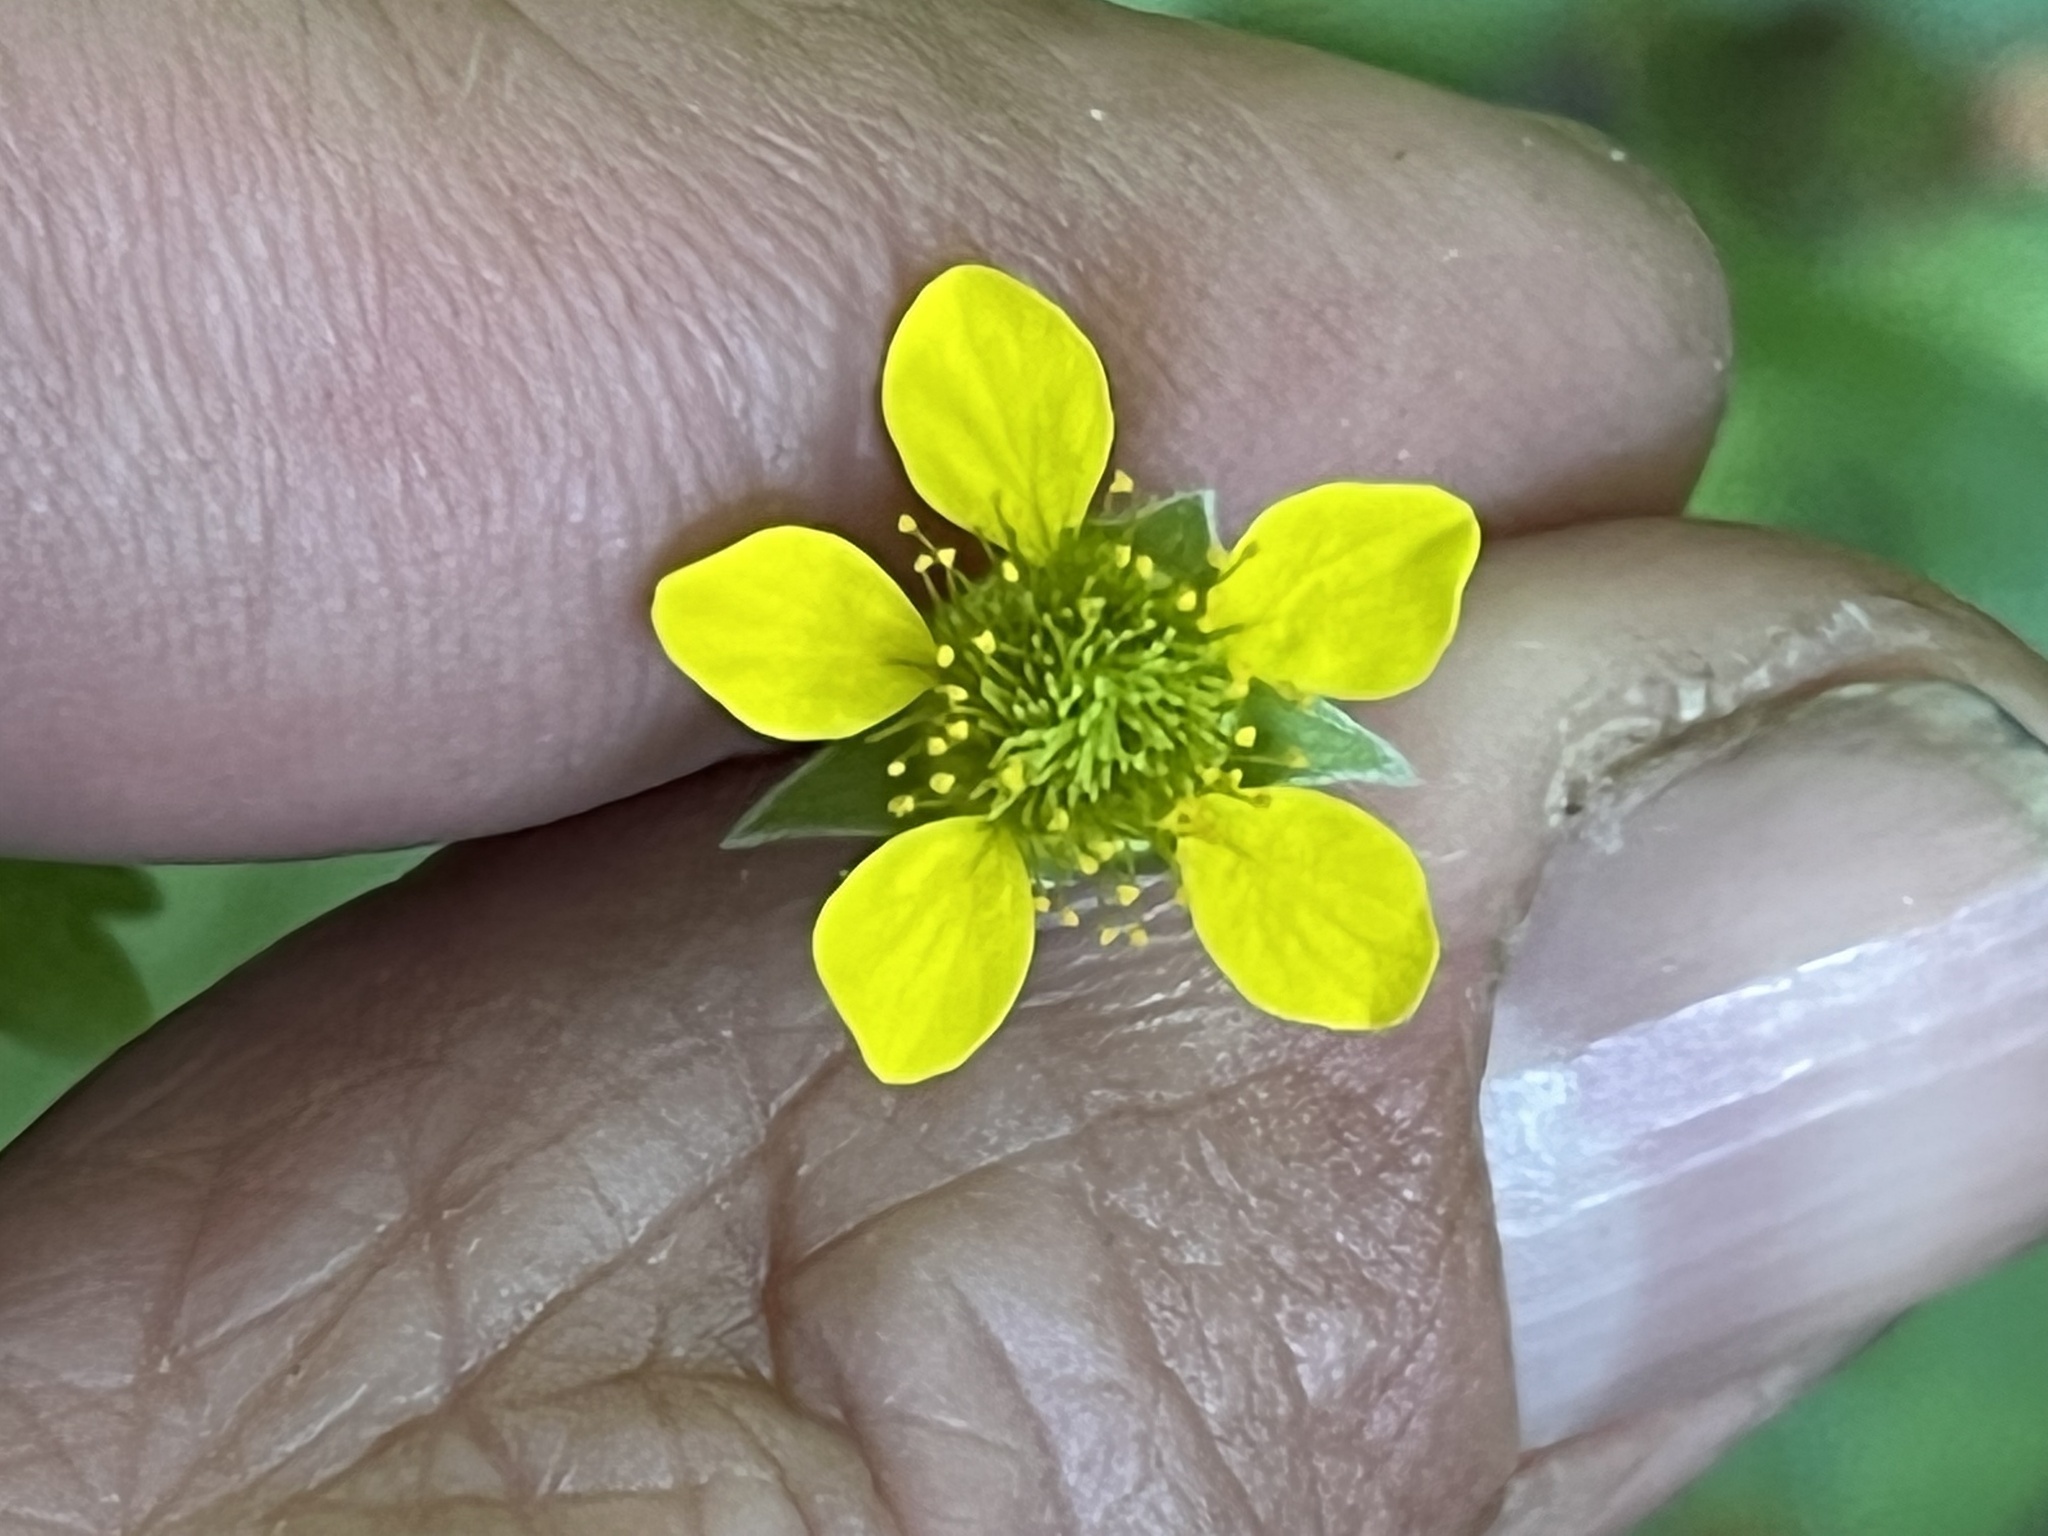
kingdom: Plantae
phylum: Tracheophyta
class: Magnoliopsida
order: Rosales
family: Rosaceae
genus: Geum
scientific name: Geum urbanum
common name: Wood avens
